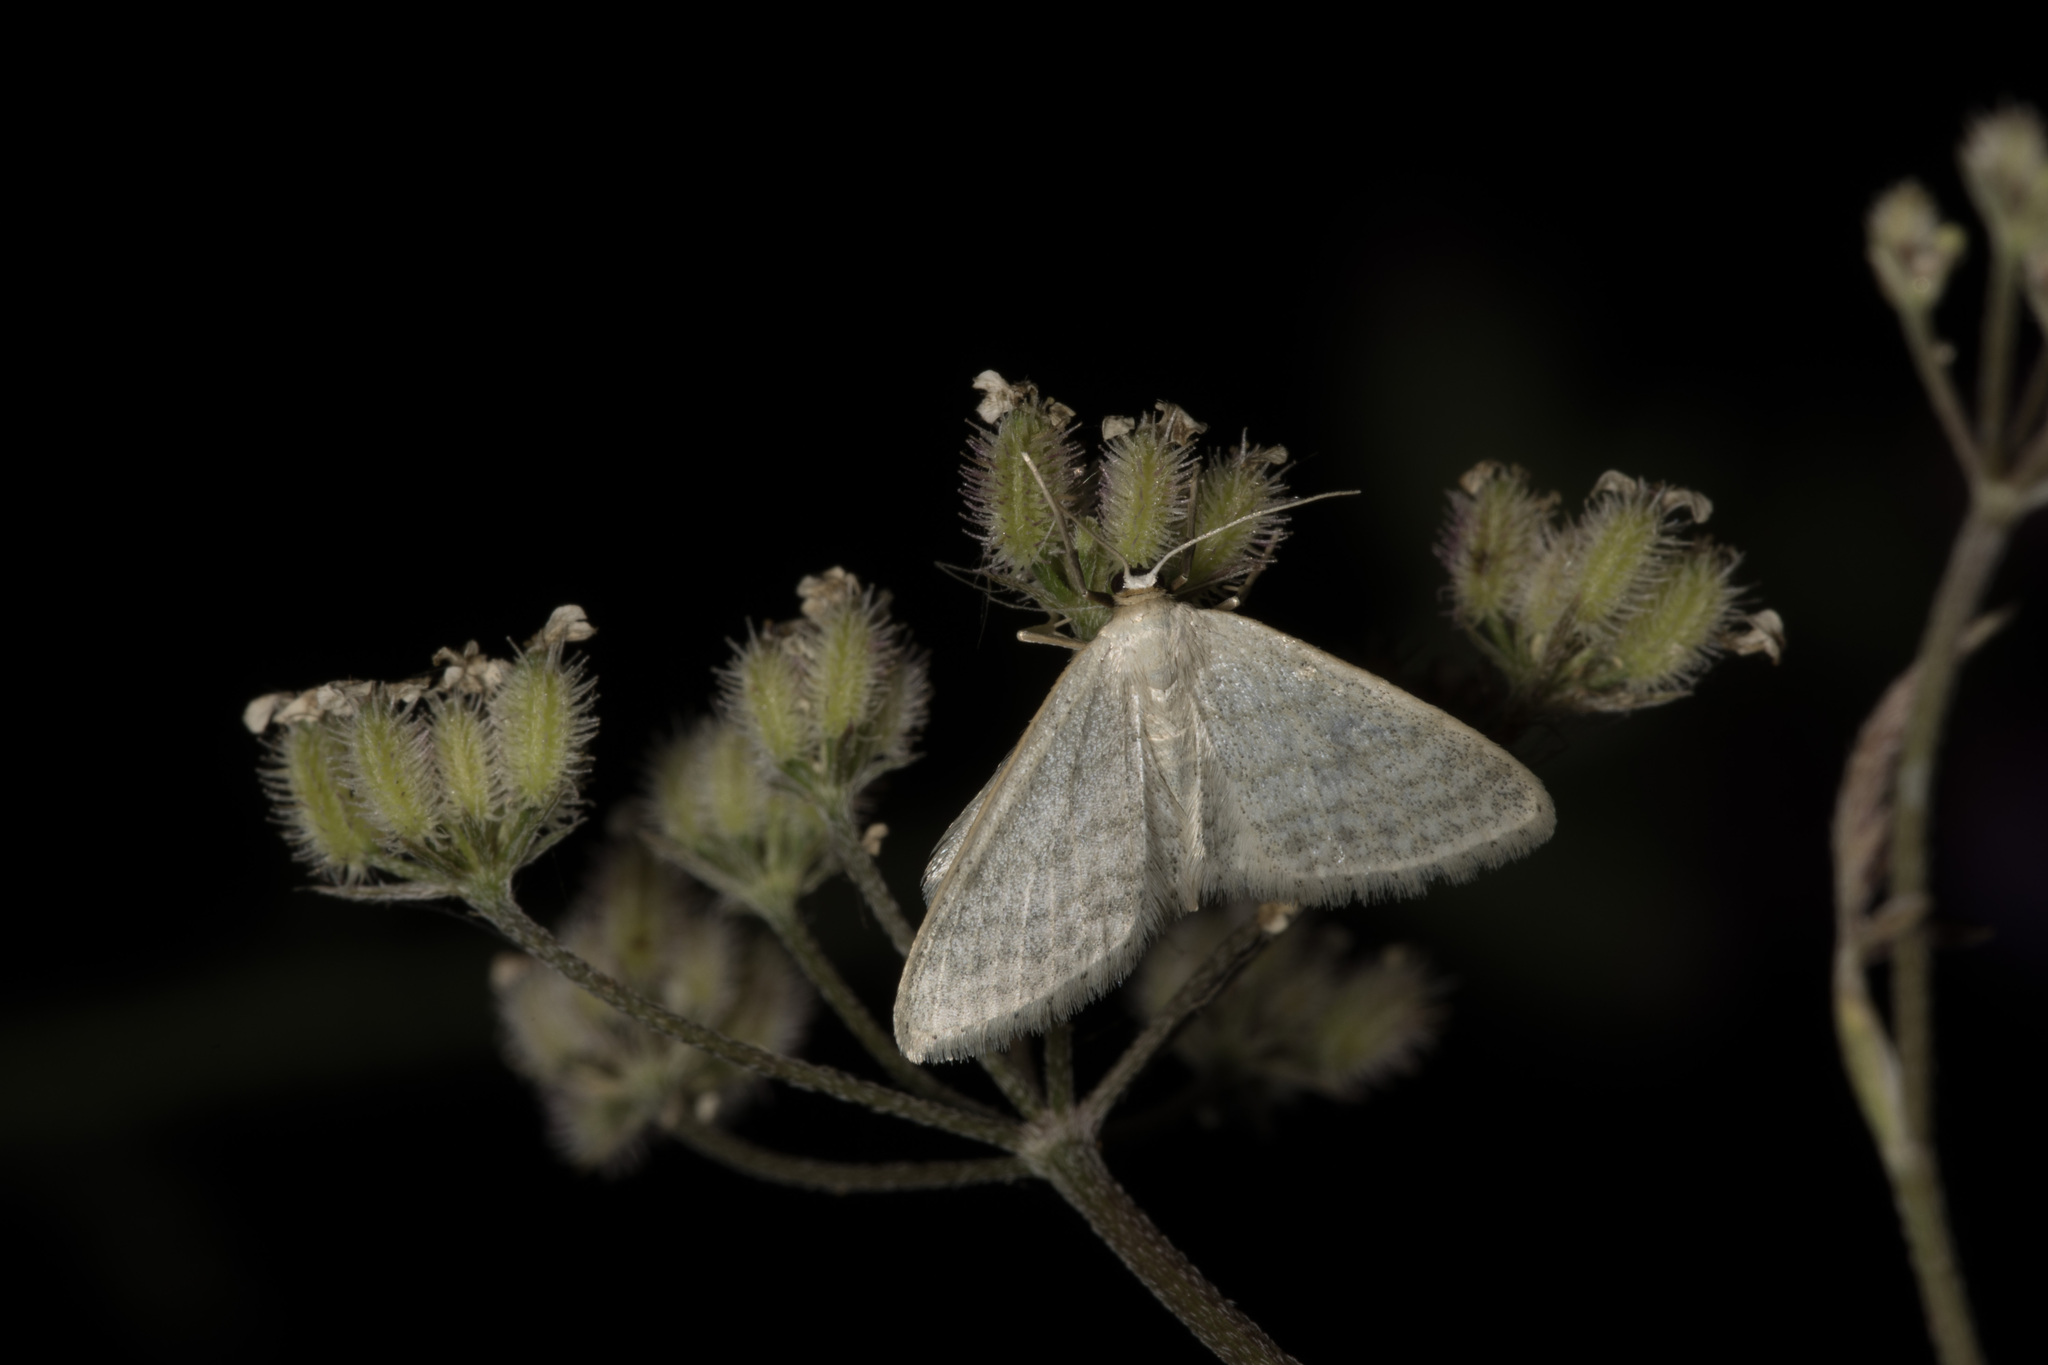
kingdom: Animalia
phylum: Arthropoda
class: Insecta
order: Lepidoptera
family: Geometridae
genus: Idaea
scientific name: Idaea subsericeata
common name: Satin wave
